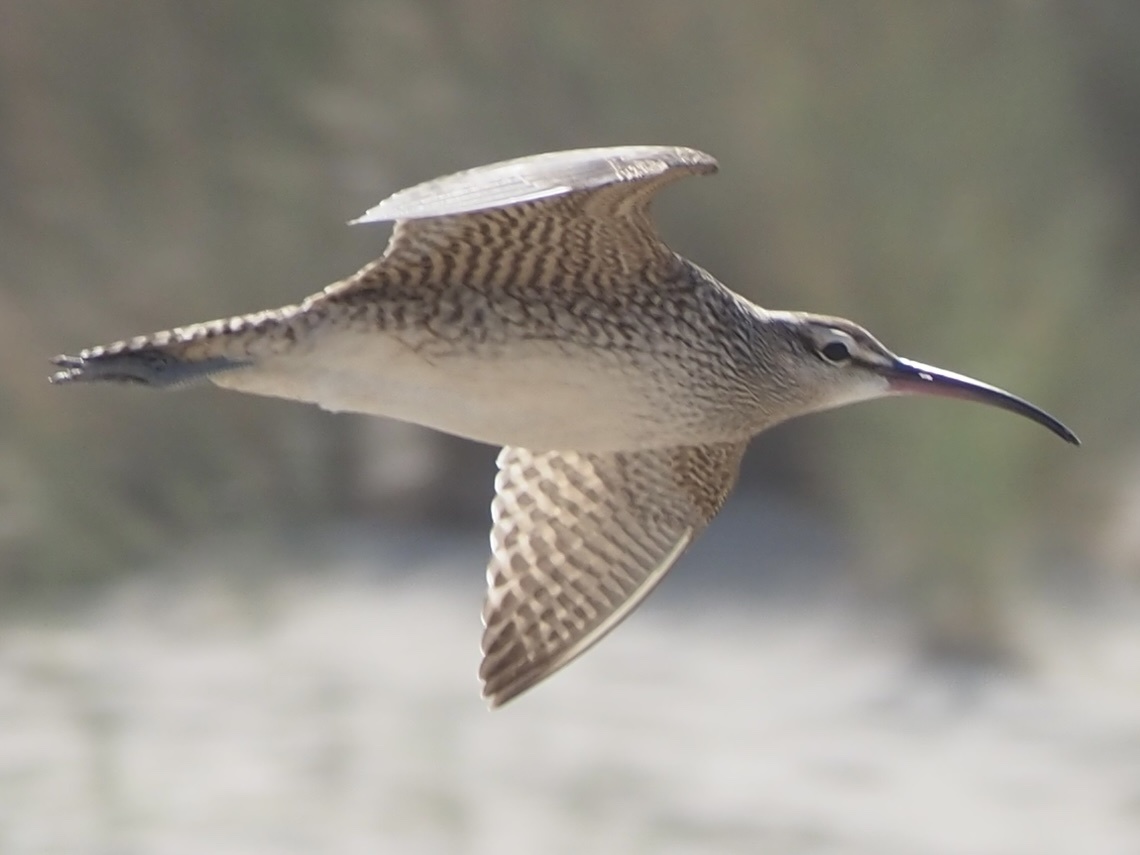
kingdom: Animalia
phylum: Chordata
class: Aves
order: Charadriiformes
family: Scolopacidae
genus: Numenius
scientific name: Numenius hudsonicus
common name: Hudsonian whimbrel
